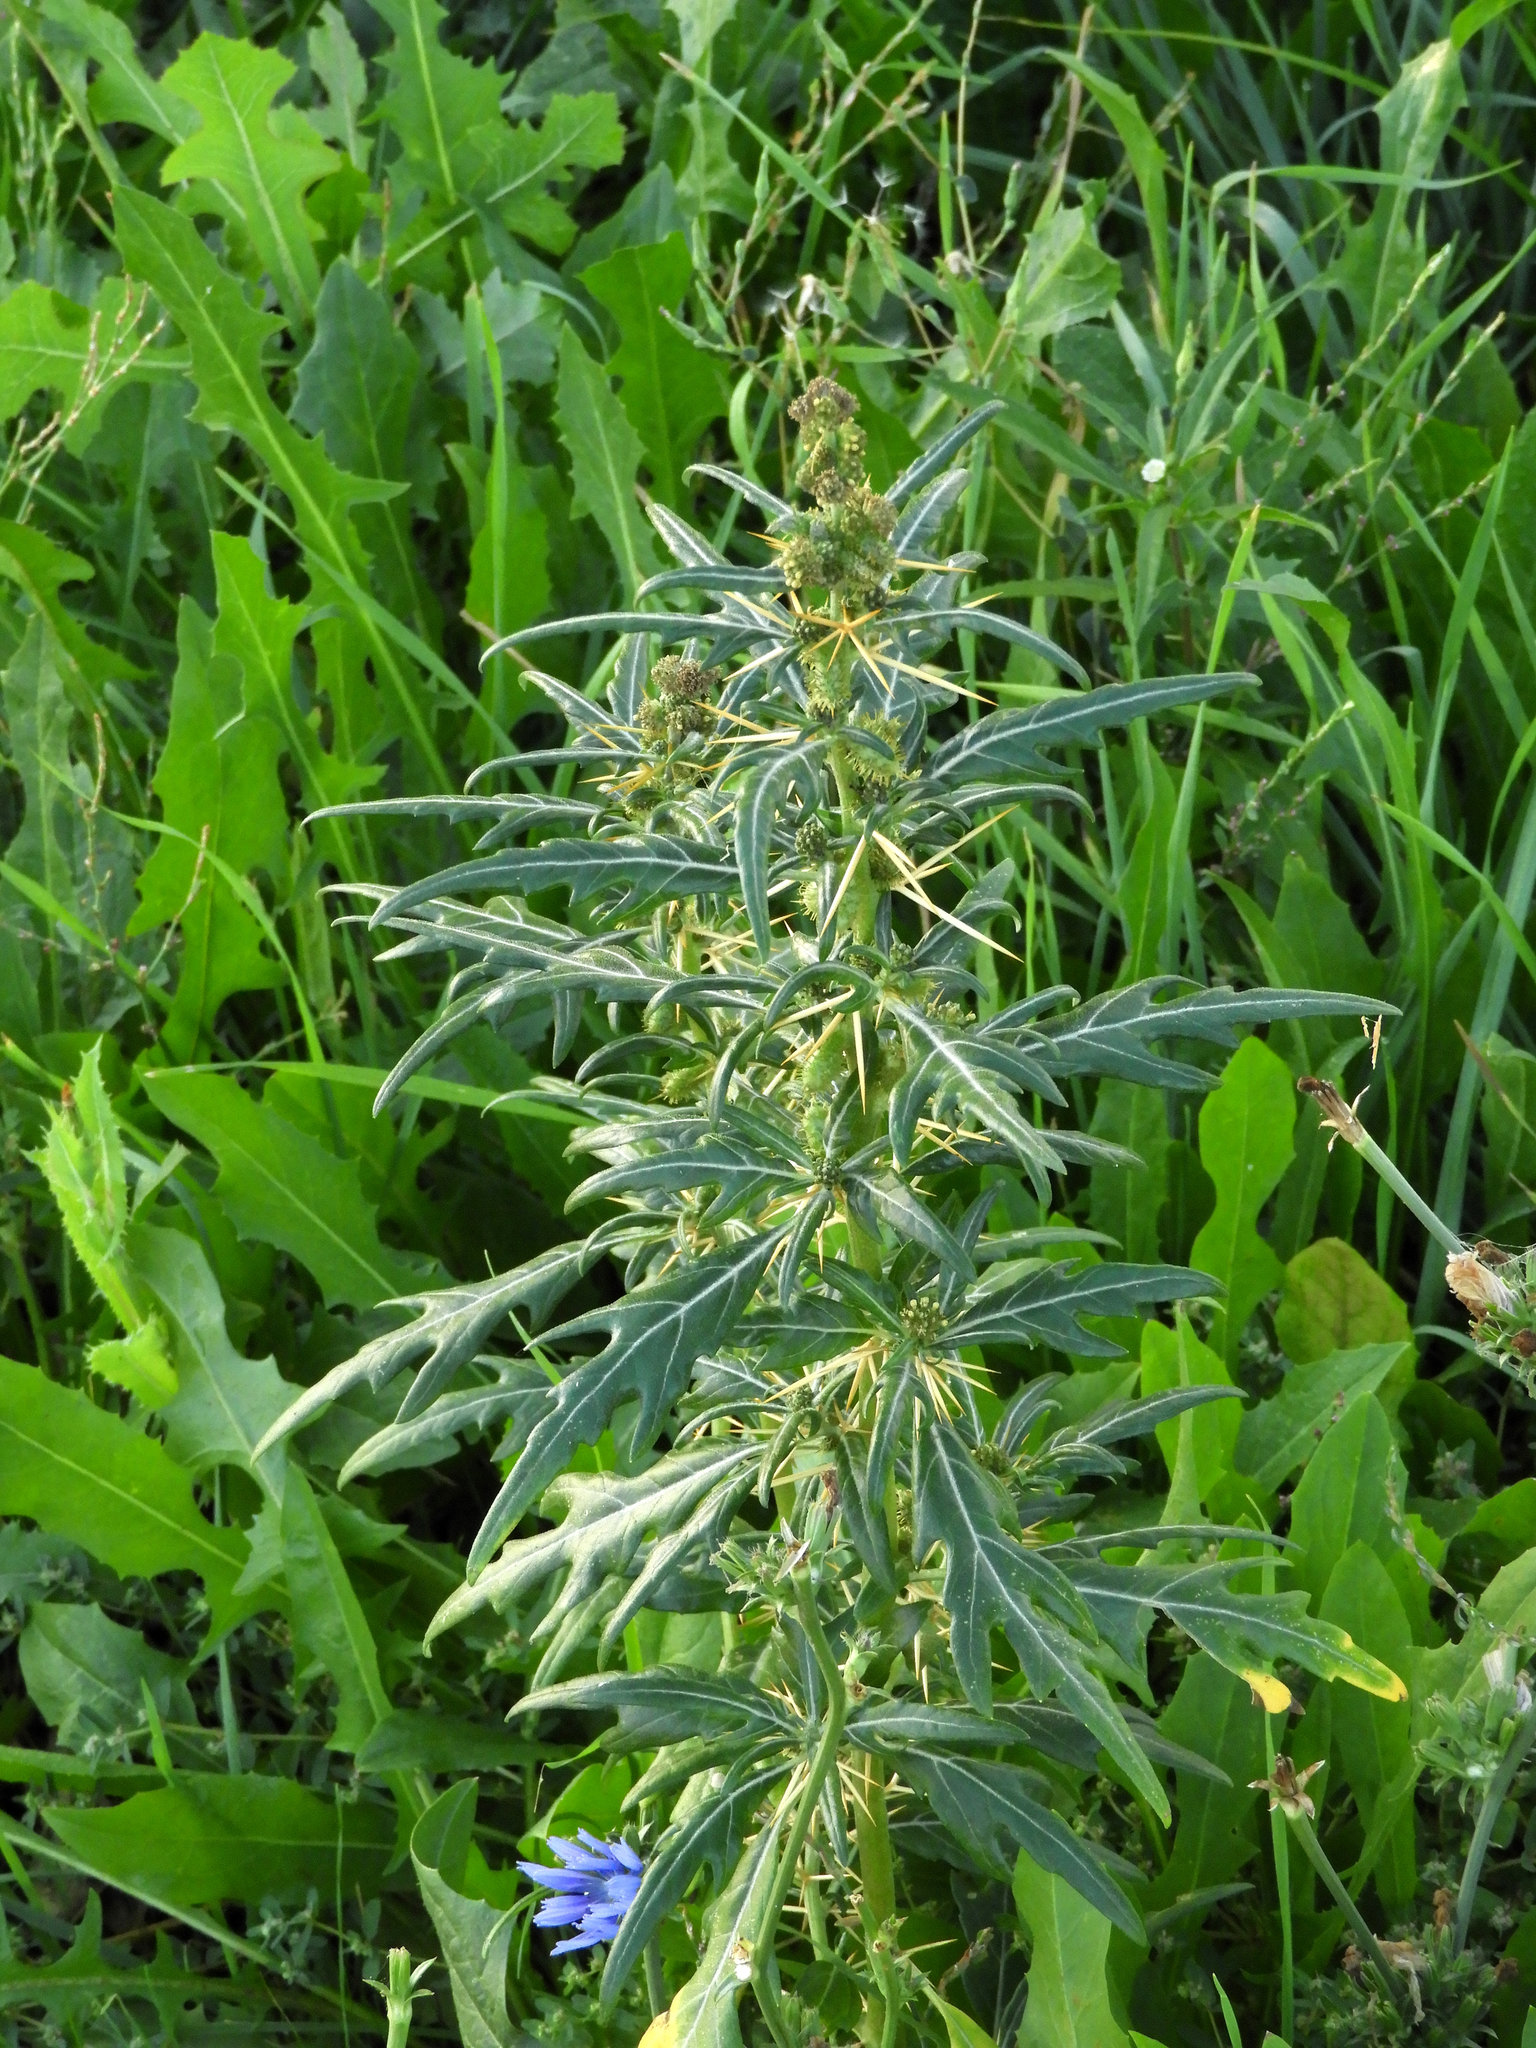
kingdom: Plantae
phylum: Tracheophyta
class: Magnoliopsida
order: Asterales
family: Asteraceae
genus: Xanthium
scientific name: Xanthium spinosum
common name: Spiny cocklebur
